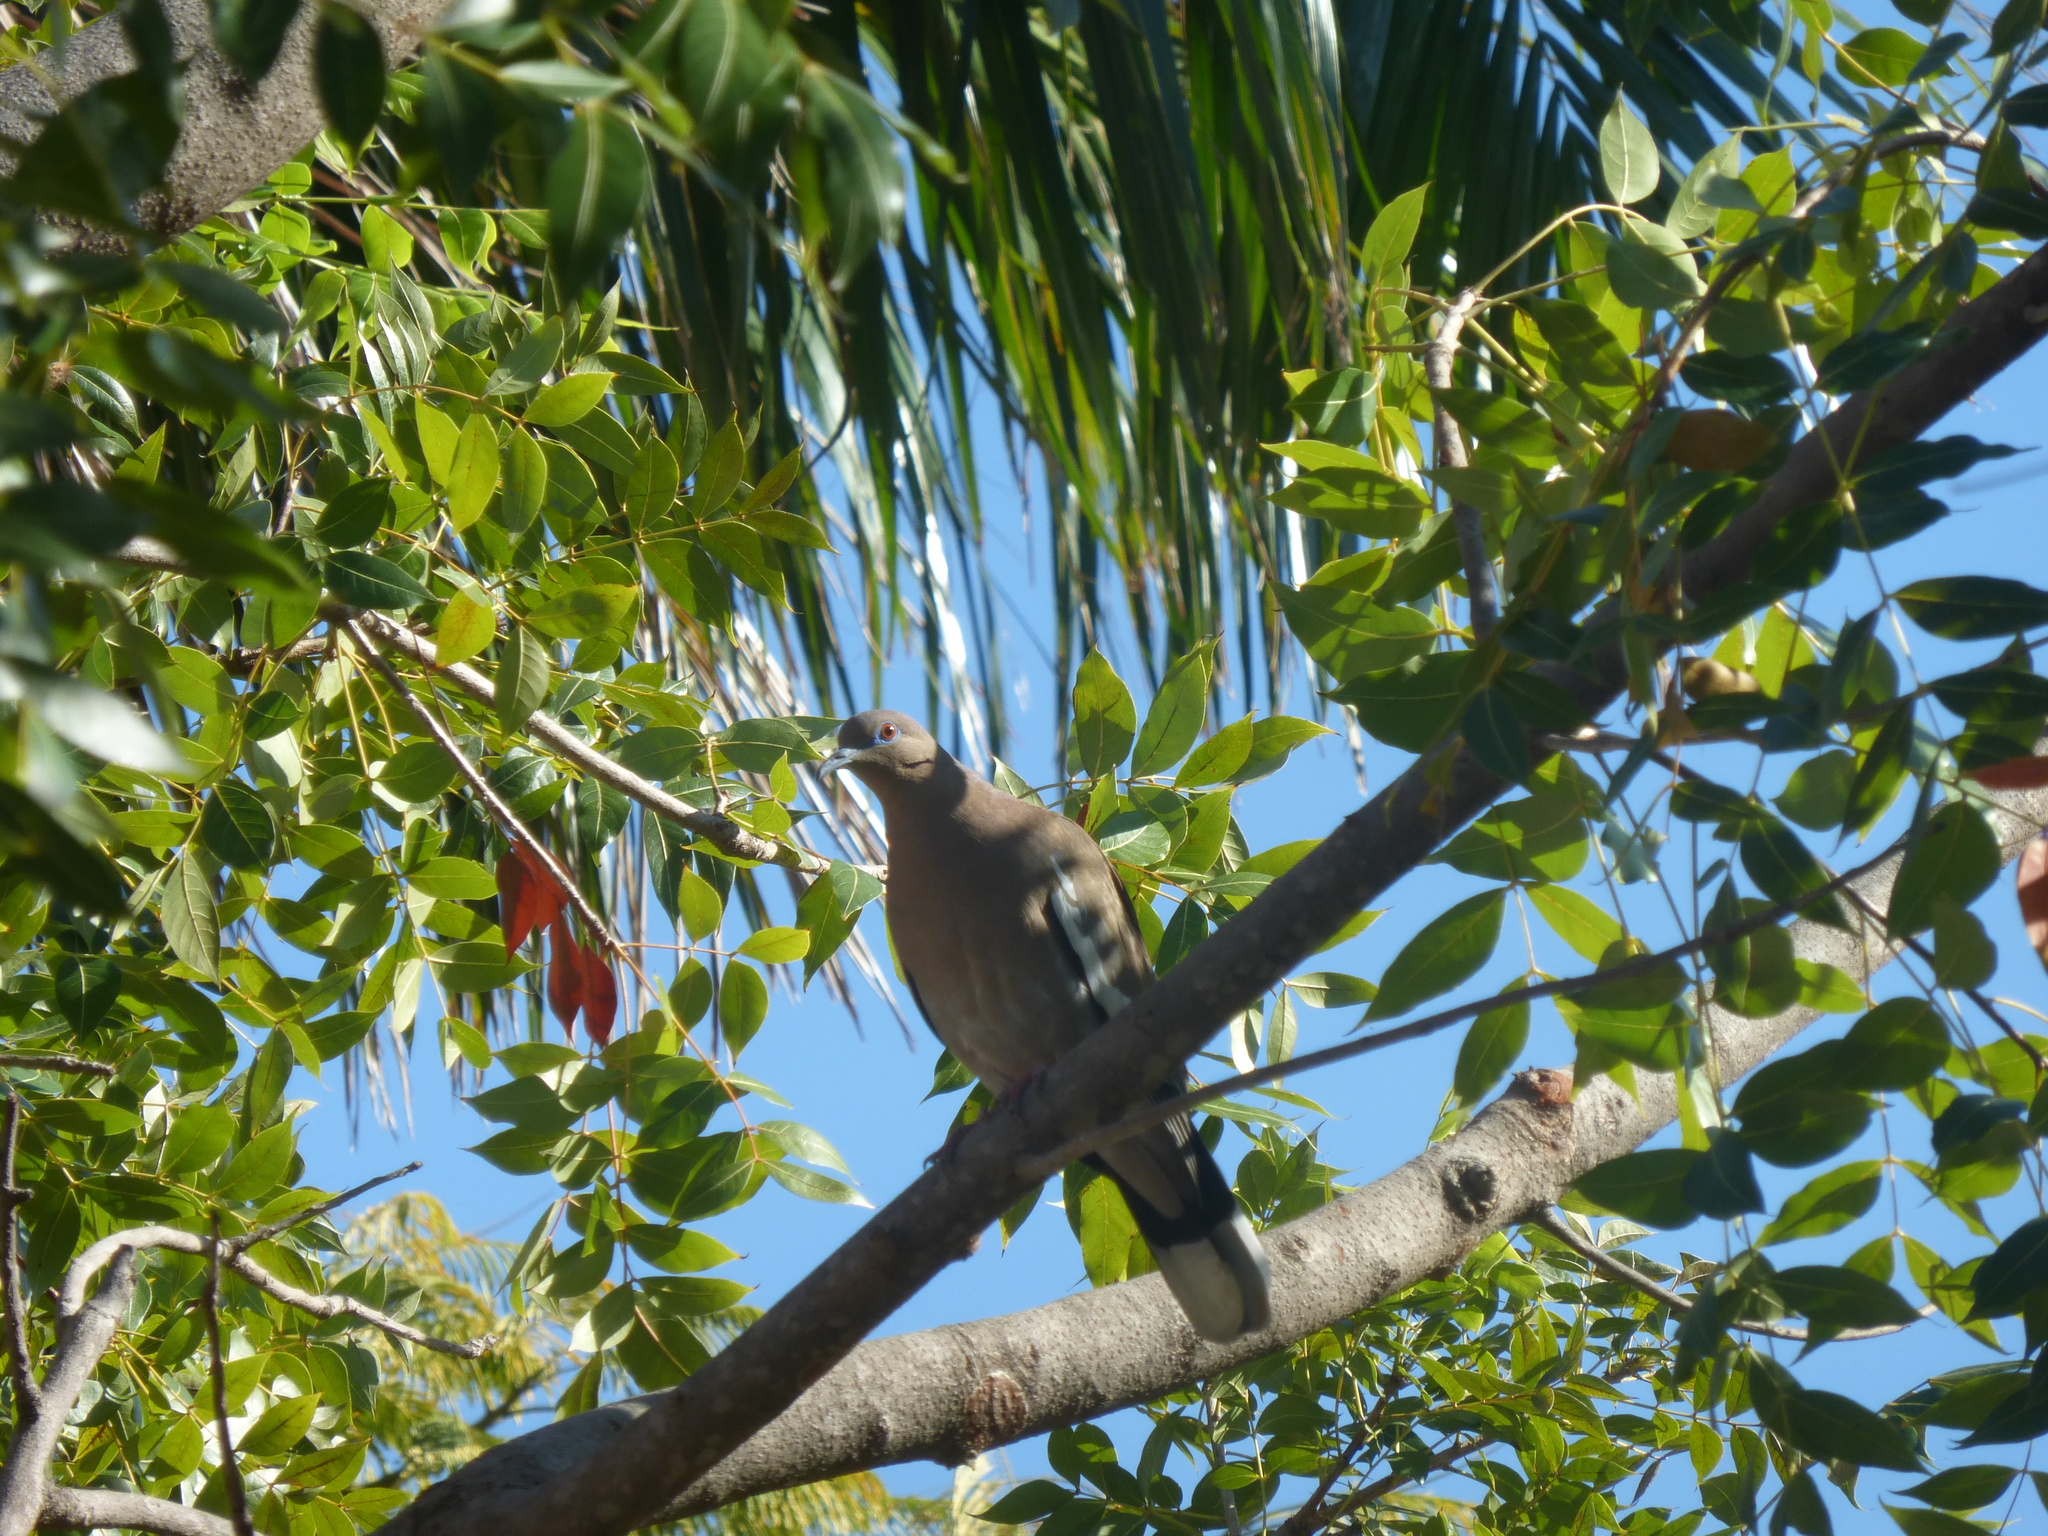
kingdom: Animalia
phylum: Chordata
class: Aves
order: Columbiformes
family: Columbidae
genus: Zenaida
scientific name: Zenaida asiatica
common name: White-winged dove
